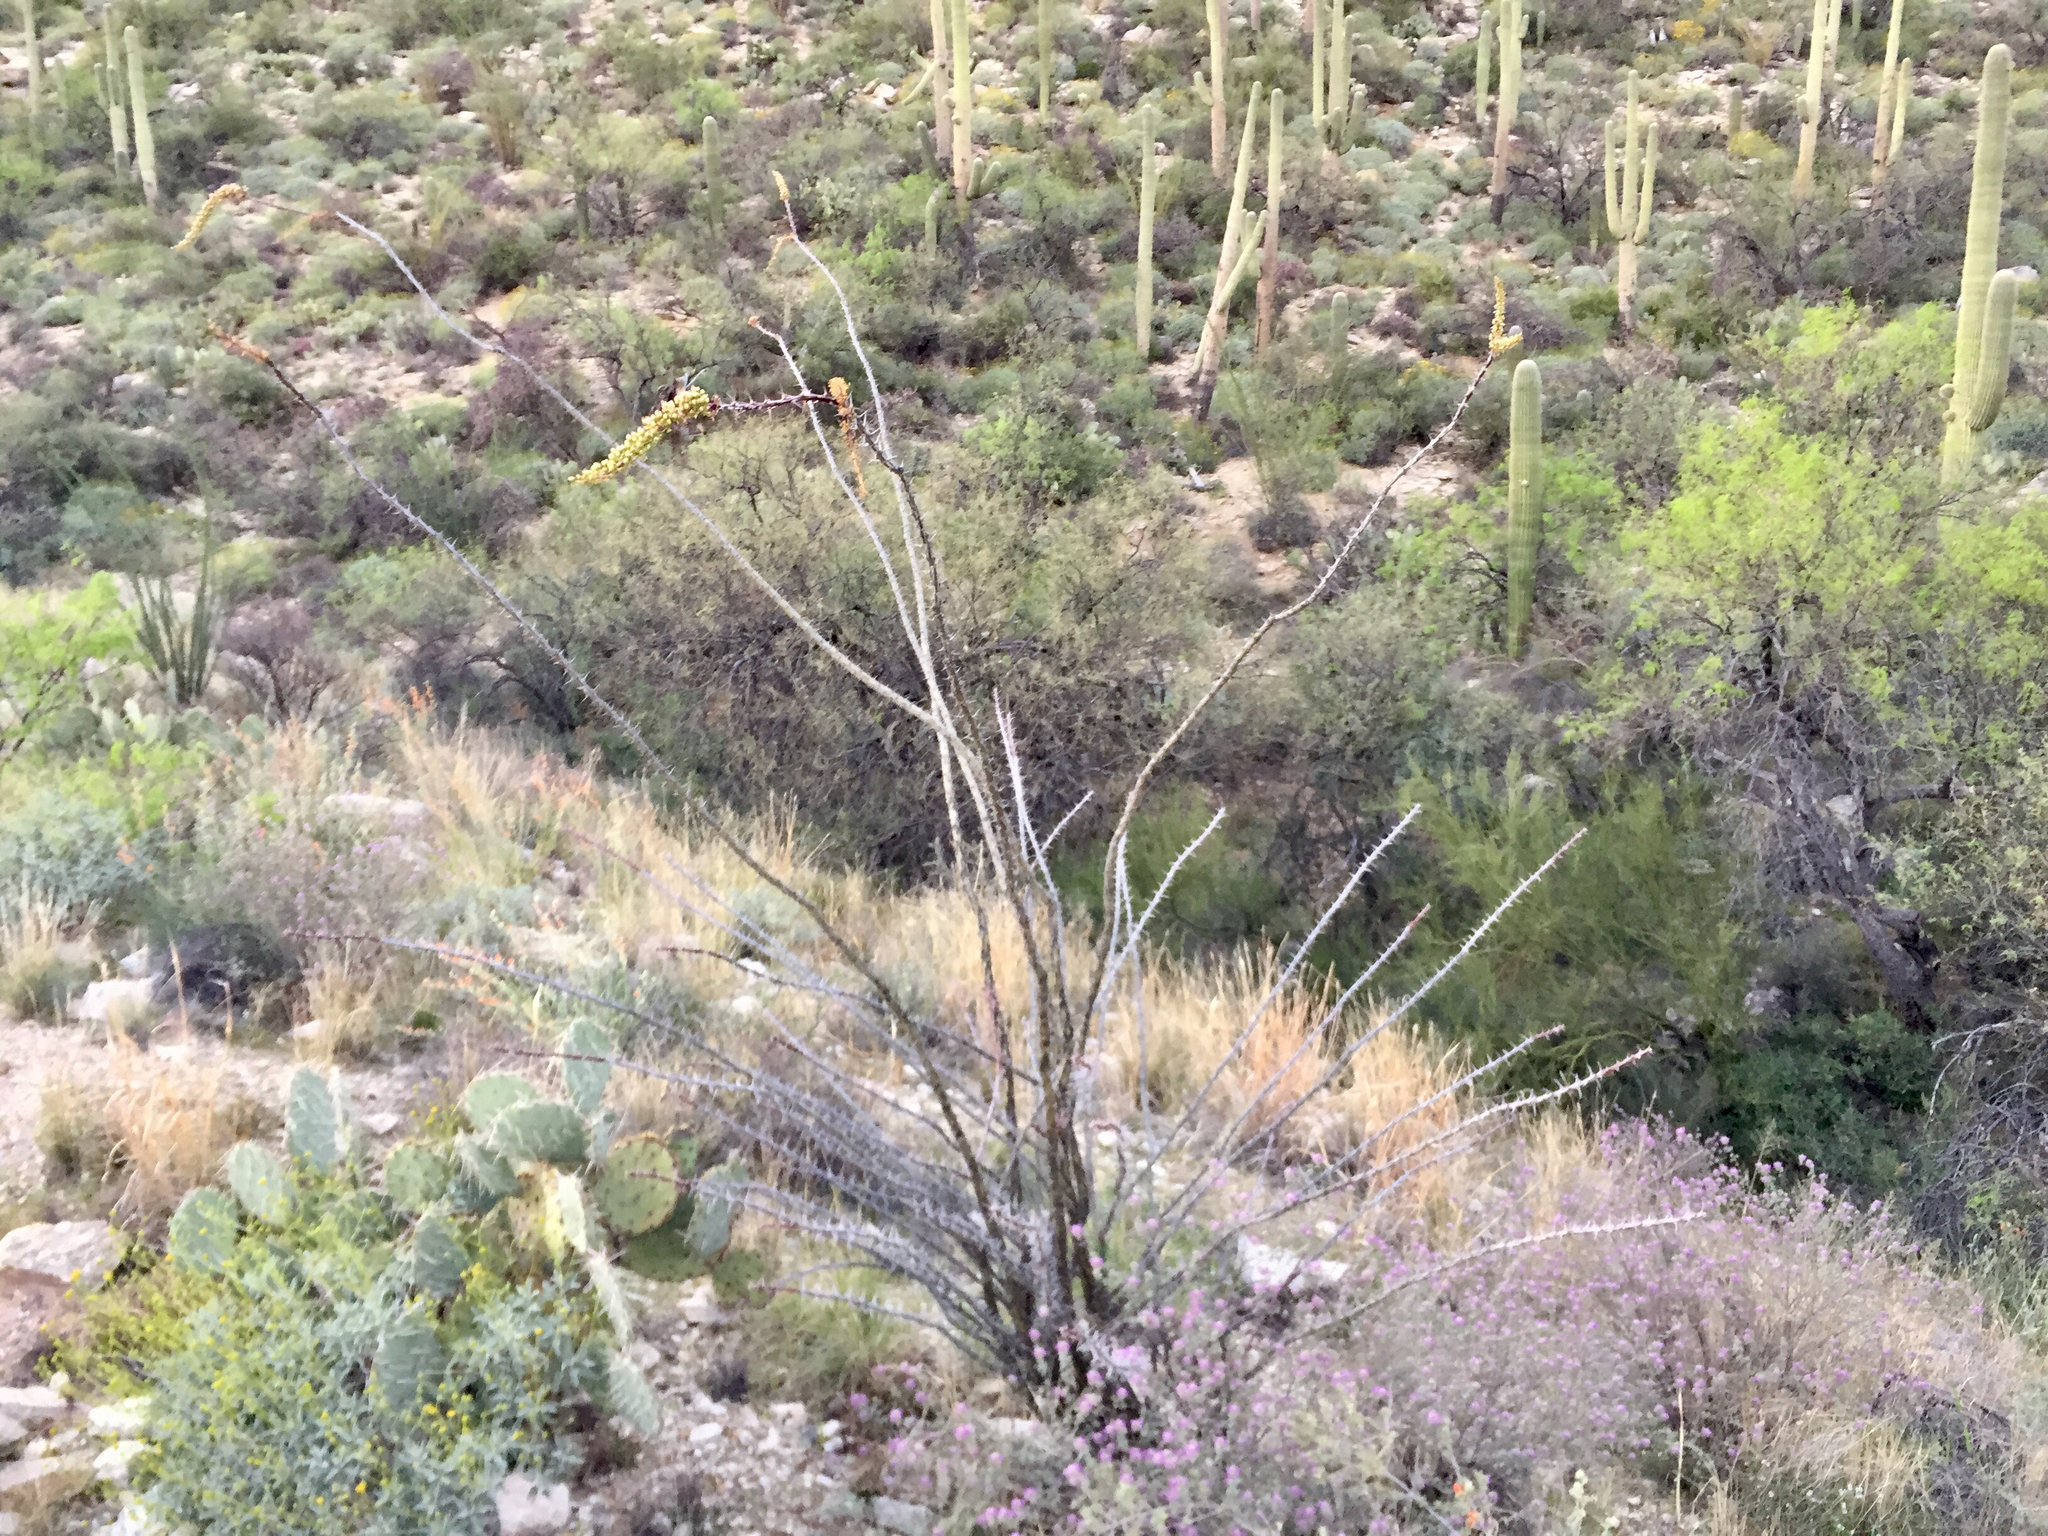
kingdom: Plantae
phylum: Tracheophyta
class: Magnoliopsida
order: Ericales
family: Fouquieriaceae
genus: Fouquieria
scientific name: Fouquieria splendens
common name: Vine-cactus
